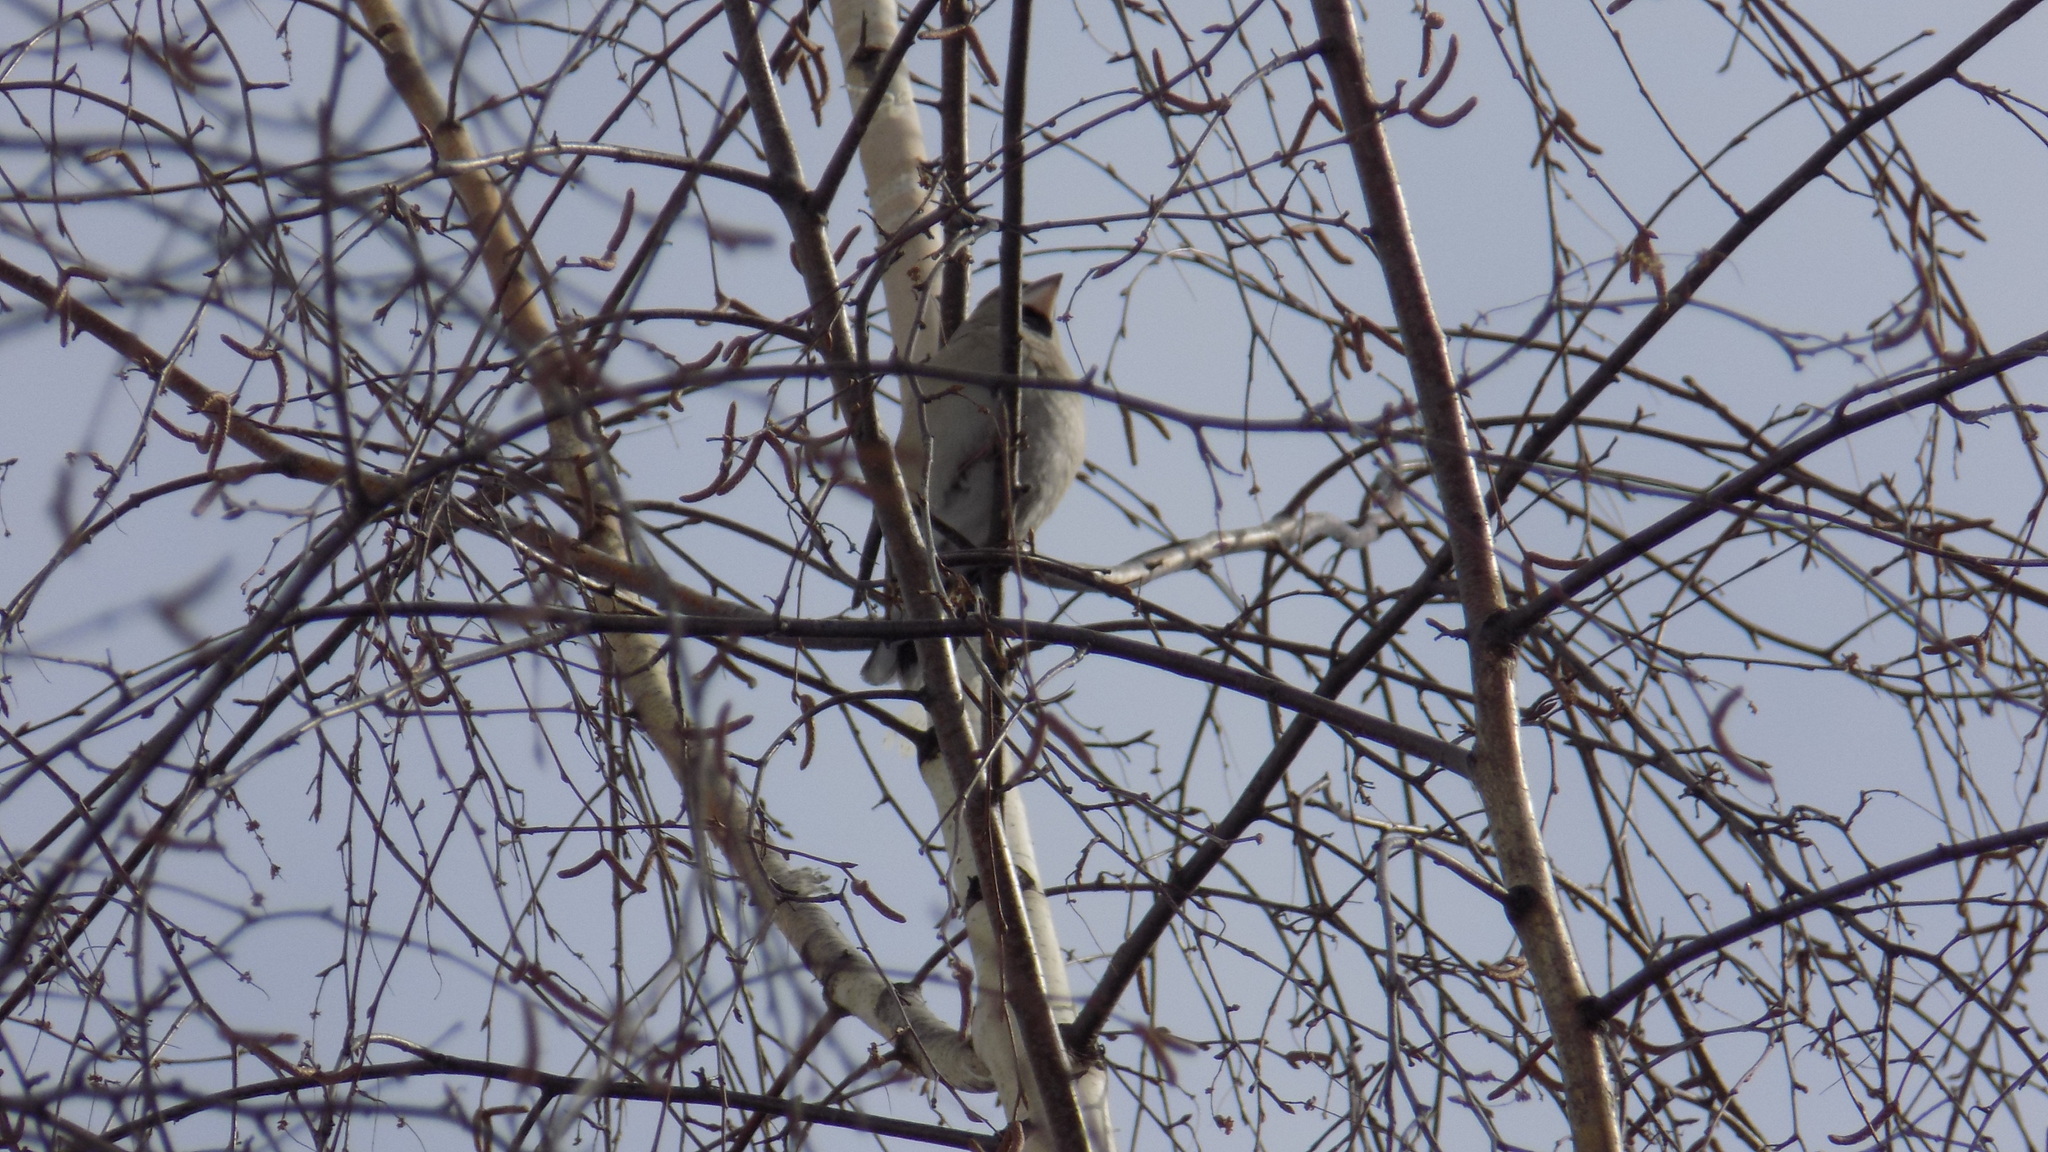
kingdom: Animalia
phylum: Chordata
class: Aves
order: Passeriformes
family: Fringillidae
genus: Coccothraustes
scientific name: Coccothraustes coccothraustes
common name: Hawfinch
